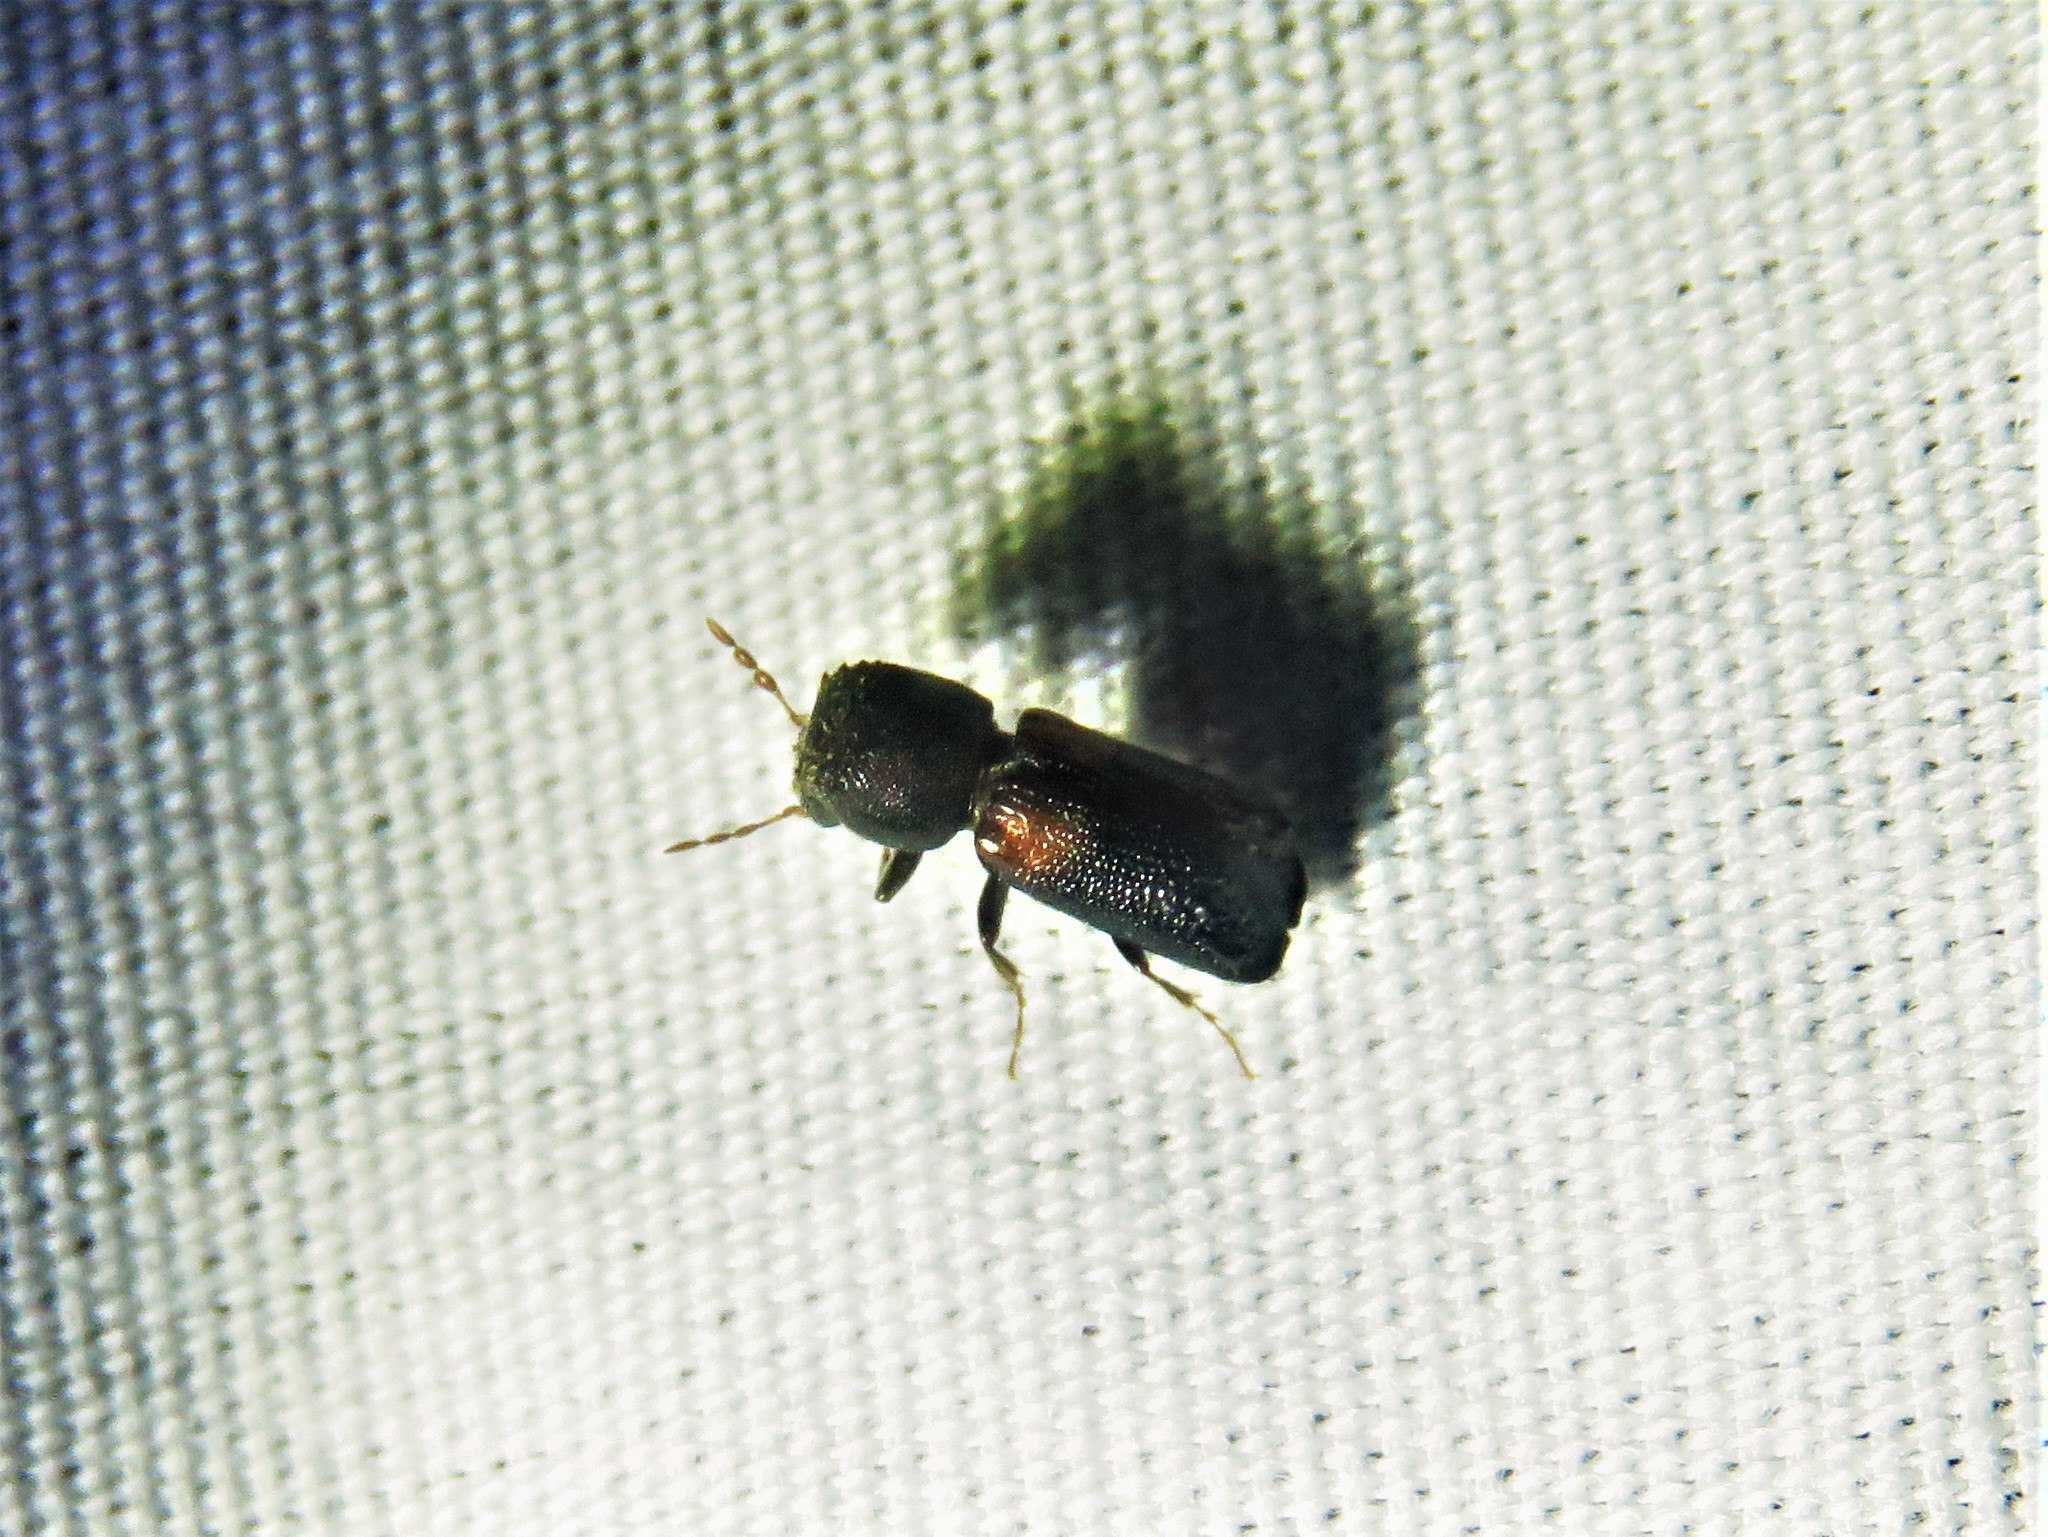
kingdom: Animalia
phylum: Arthropoda
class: Insecta
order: Coleoptera
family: Bostrichidae
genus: Xylobiops
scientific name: Xylobiops basilaris
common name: Red-shouldered bostrichid
